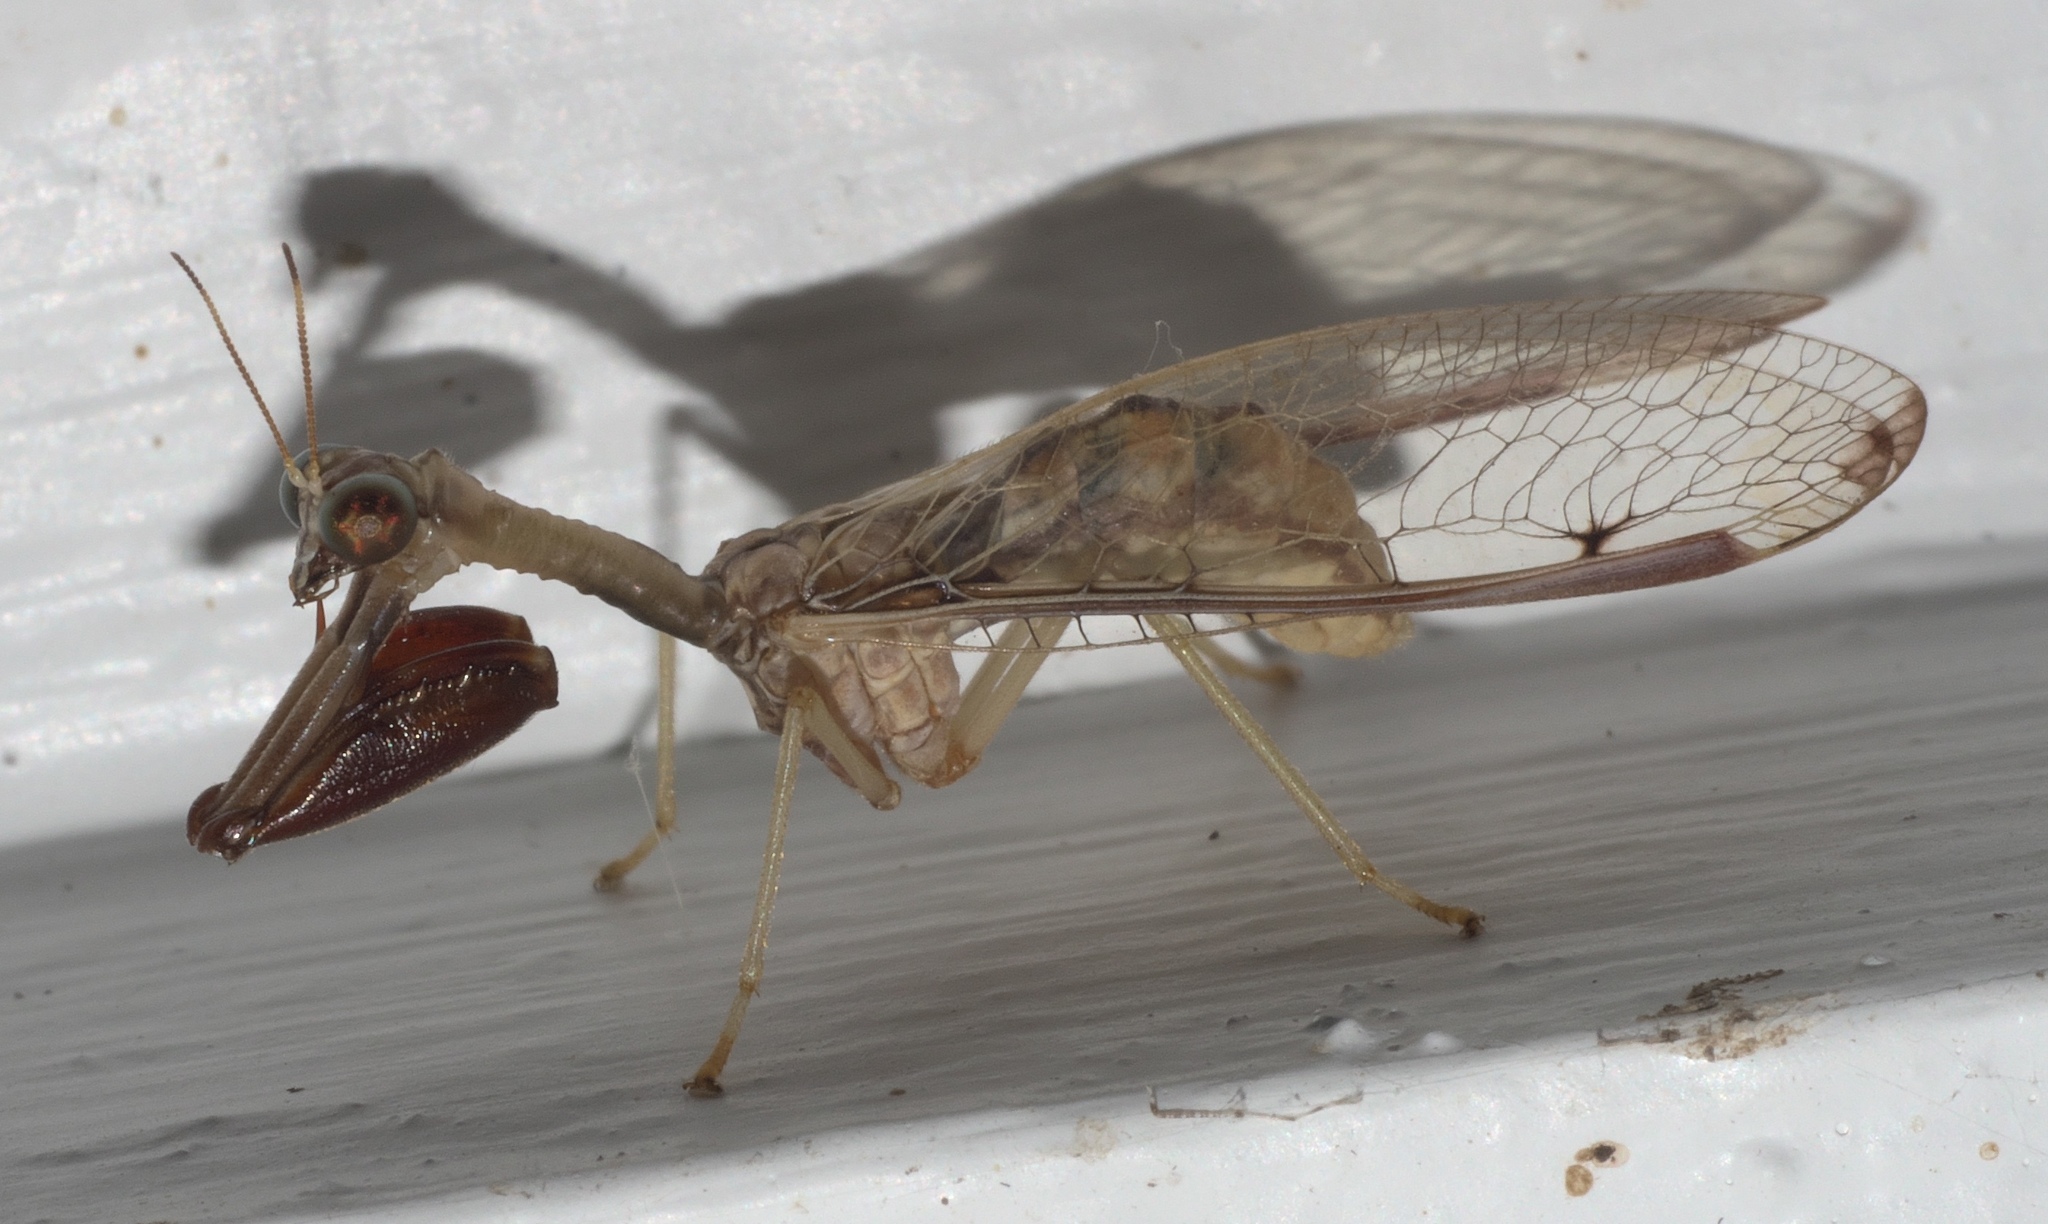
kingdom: Animalia
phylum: Arthropoda
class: Insecta
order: Neuroptera
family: Mantispidae
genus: Dicromantispa
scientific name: Dicromantispa interrupta
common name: Four-spotted mantidfly
